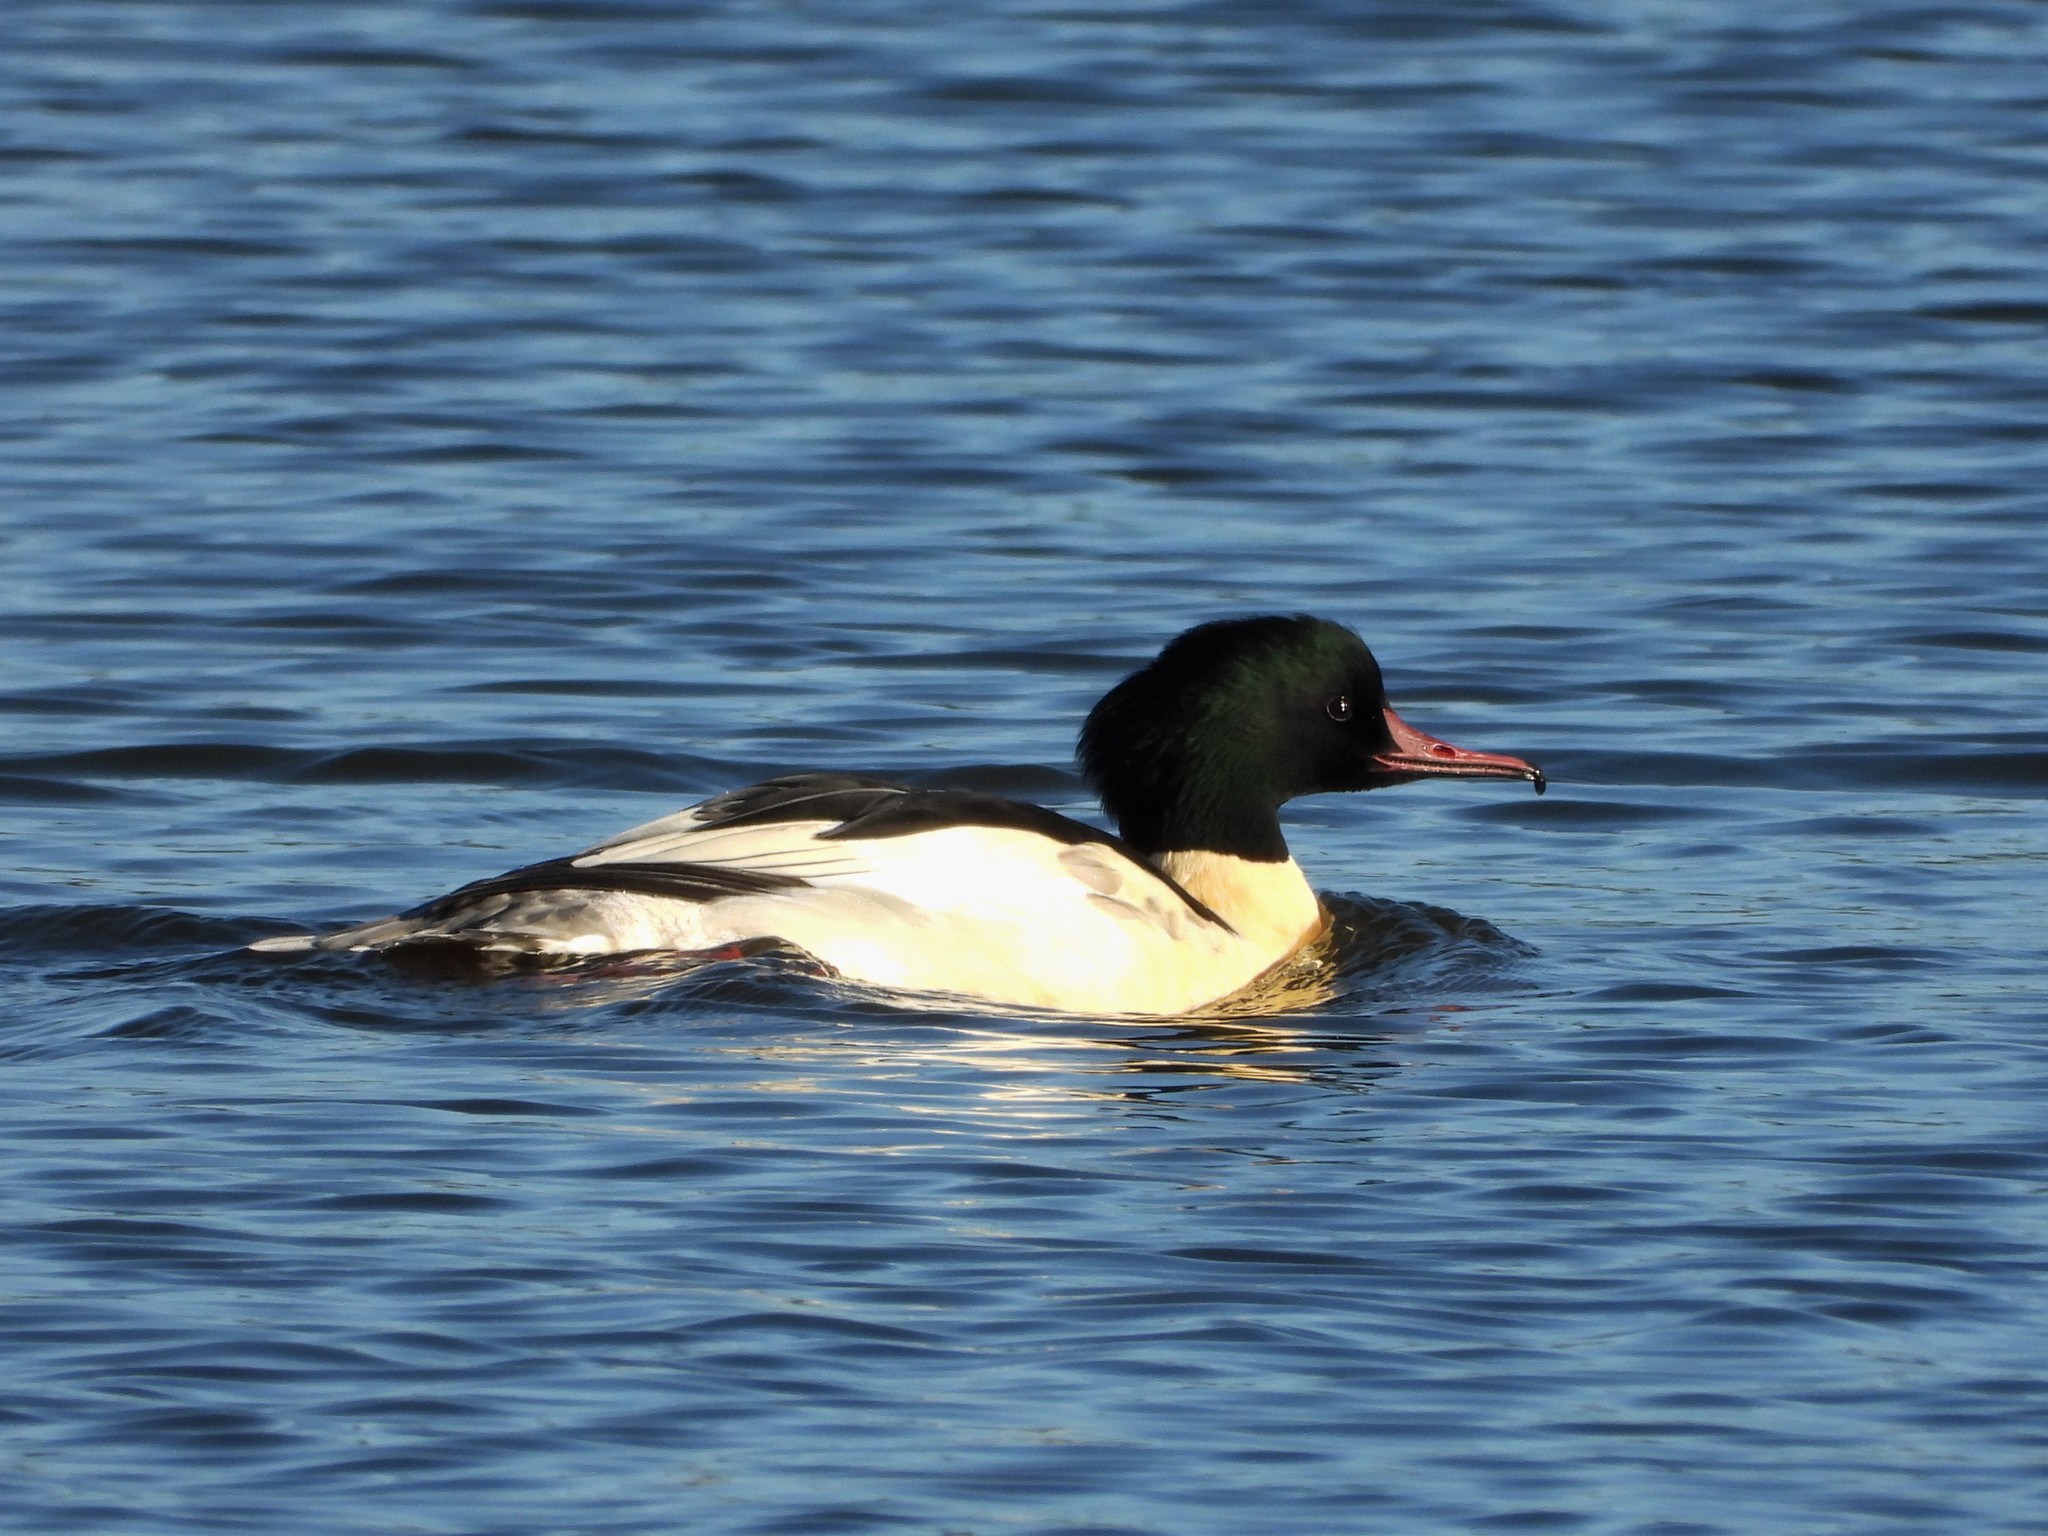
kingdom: Animalia
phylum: Chordata
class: Aves
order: Anseriformes
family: Anatidae
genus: Mergus
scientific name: Mergus merganser
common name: Common merganser
